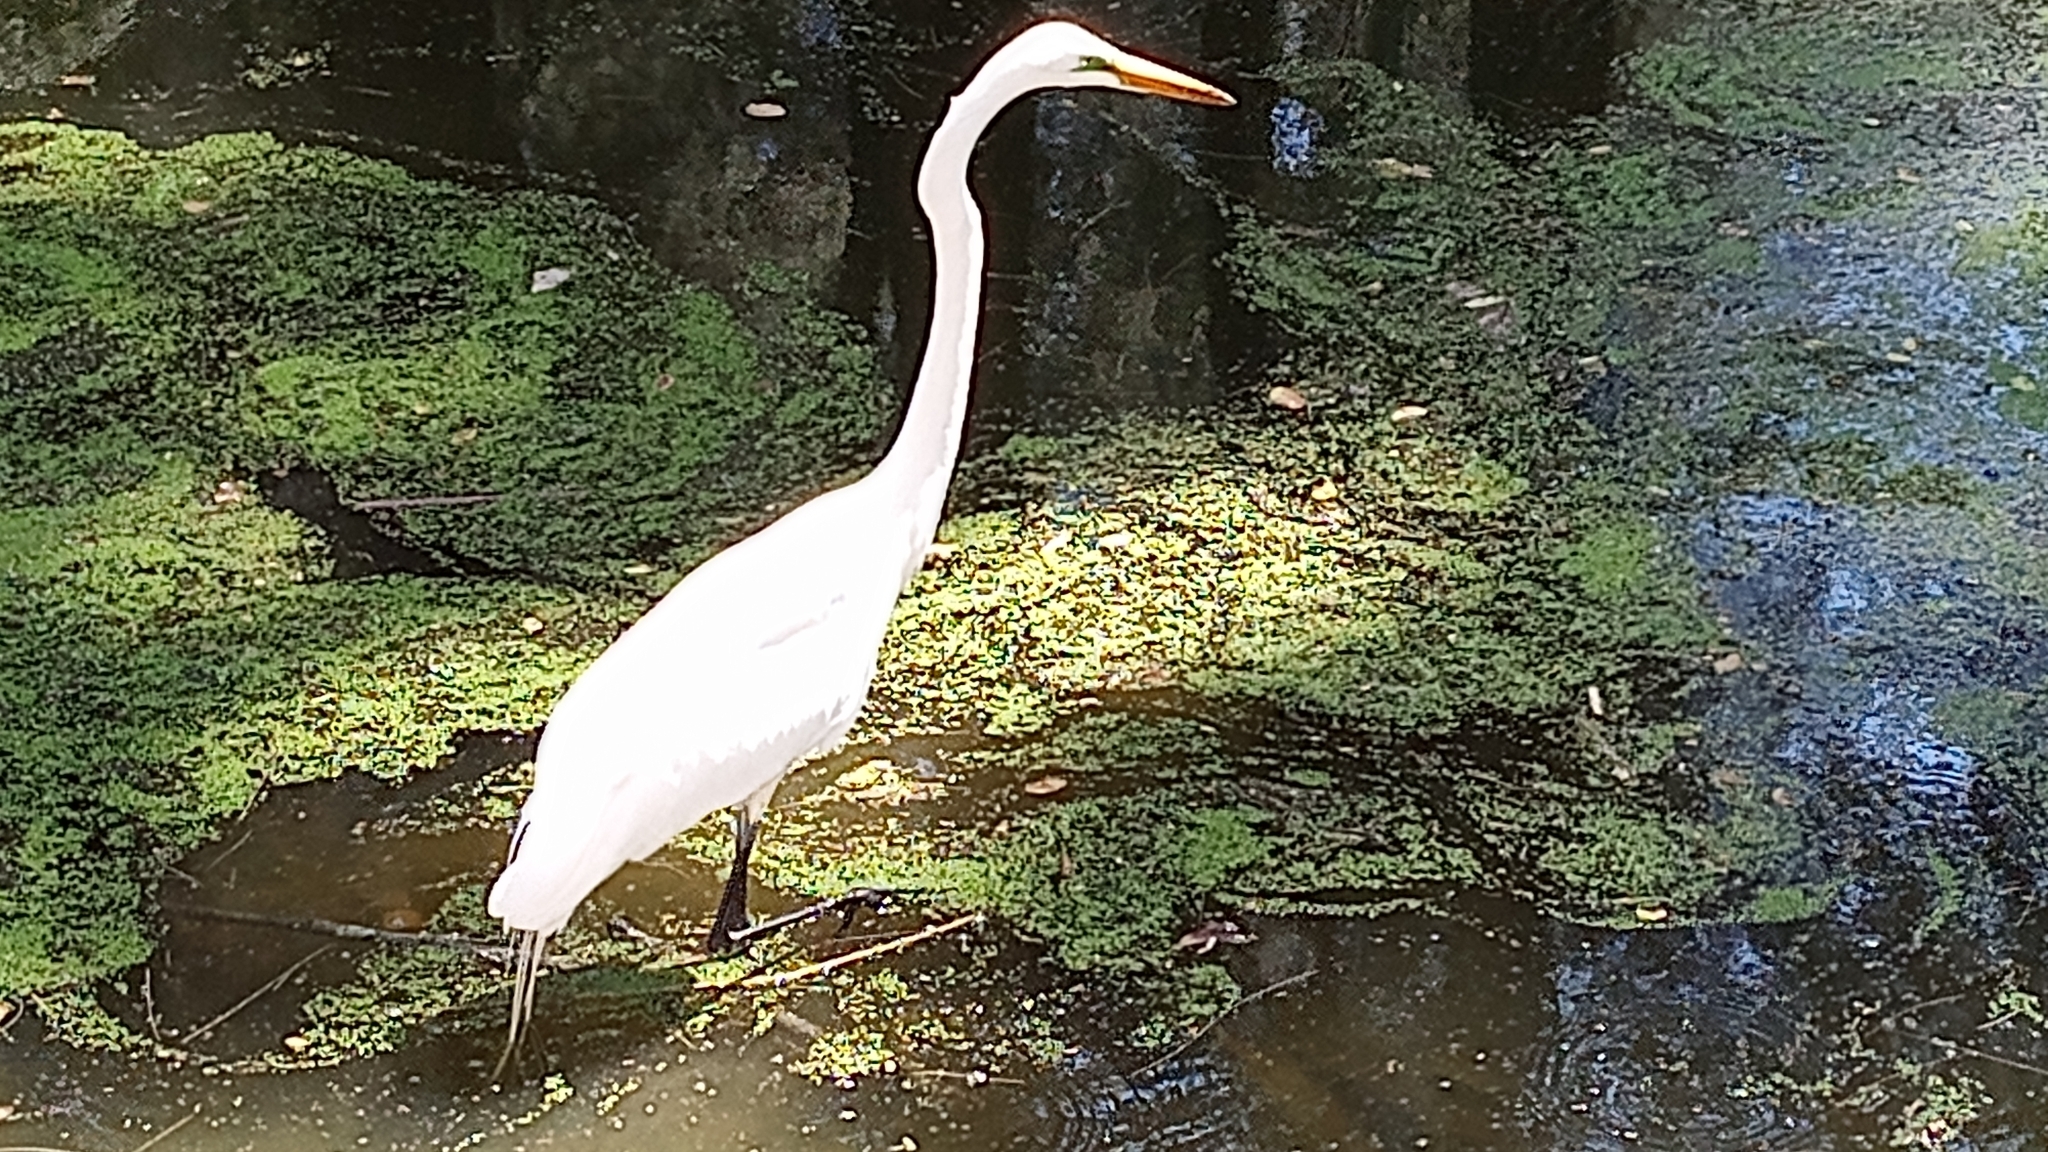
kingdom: Animalia
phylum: Chordata
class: Aves
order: Pelecaniformes
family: Ardeidae
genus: Ardea
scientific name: Ardea alba
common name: Great egret
